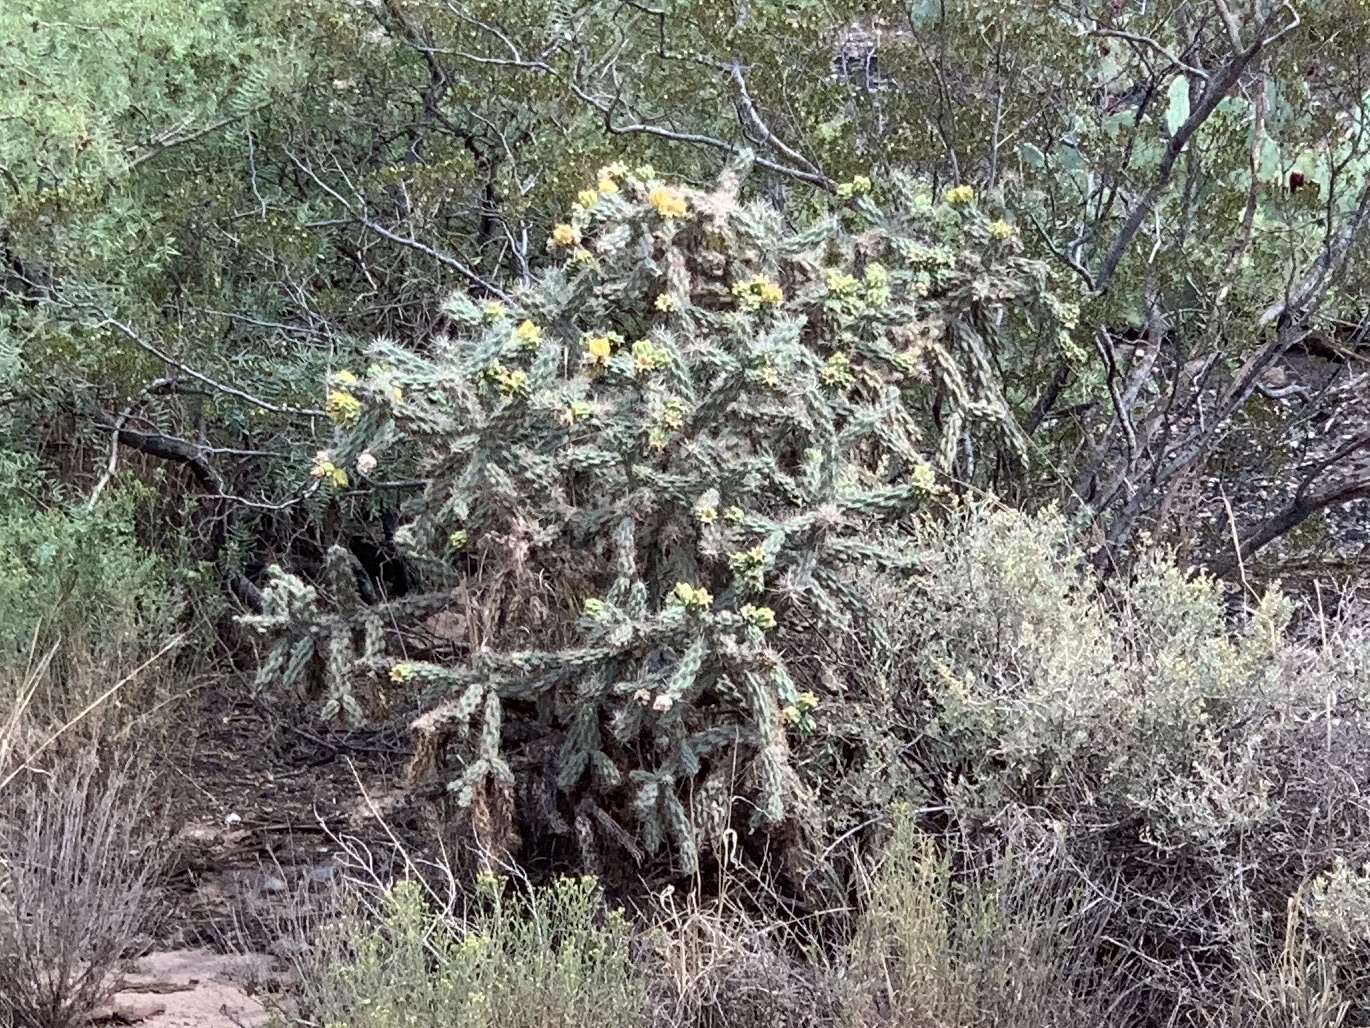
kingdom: Plantae
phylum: Tracheophyta
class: Magnoliopsida
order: Caryophyllales
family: Cactaceae
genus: Cylindropuntia
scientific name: Cylindropuntia imbricata
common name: Candelabrum cactus
